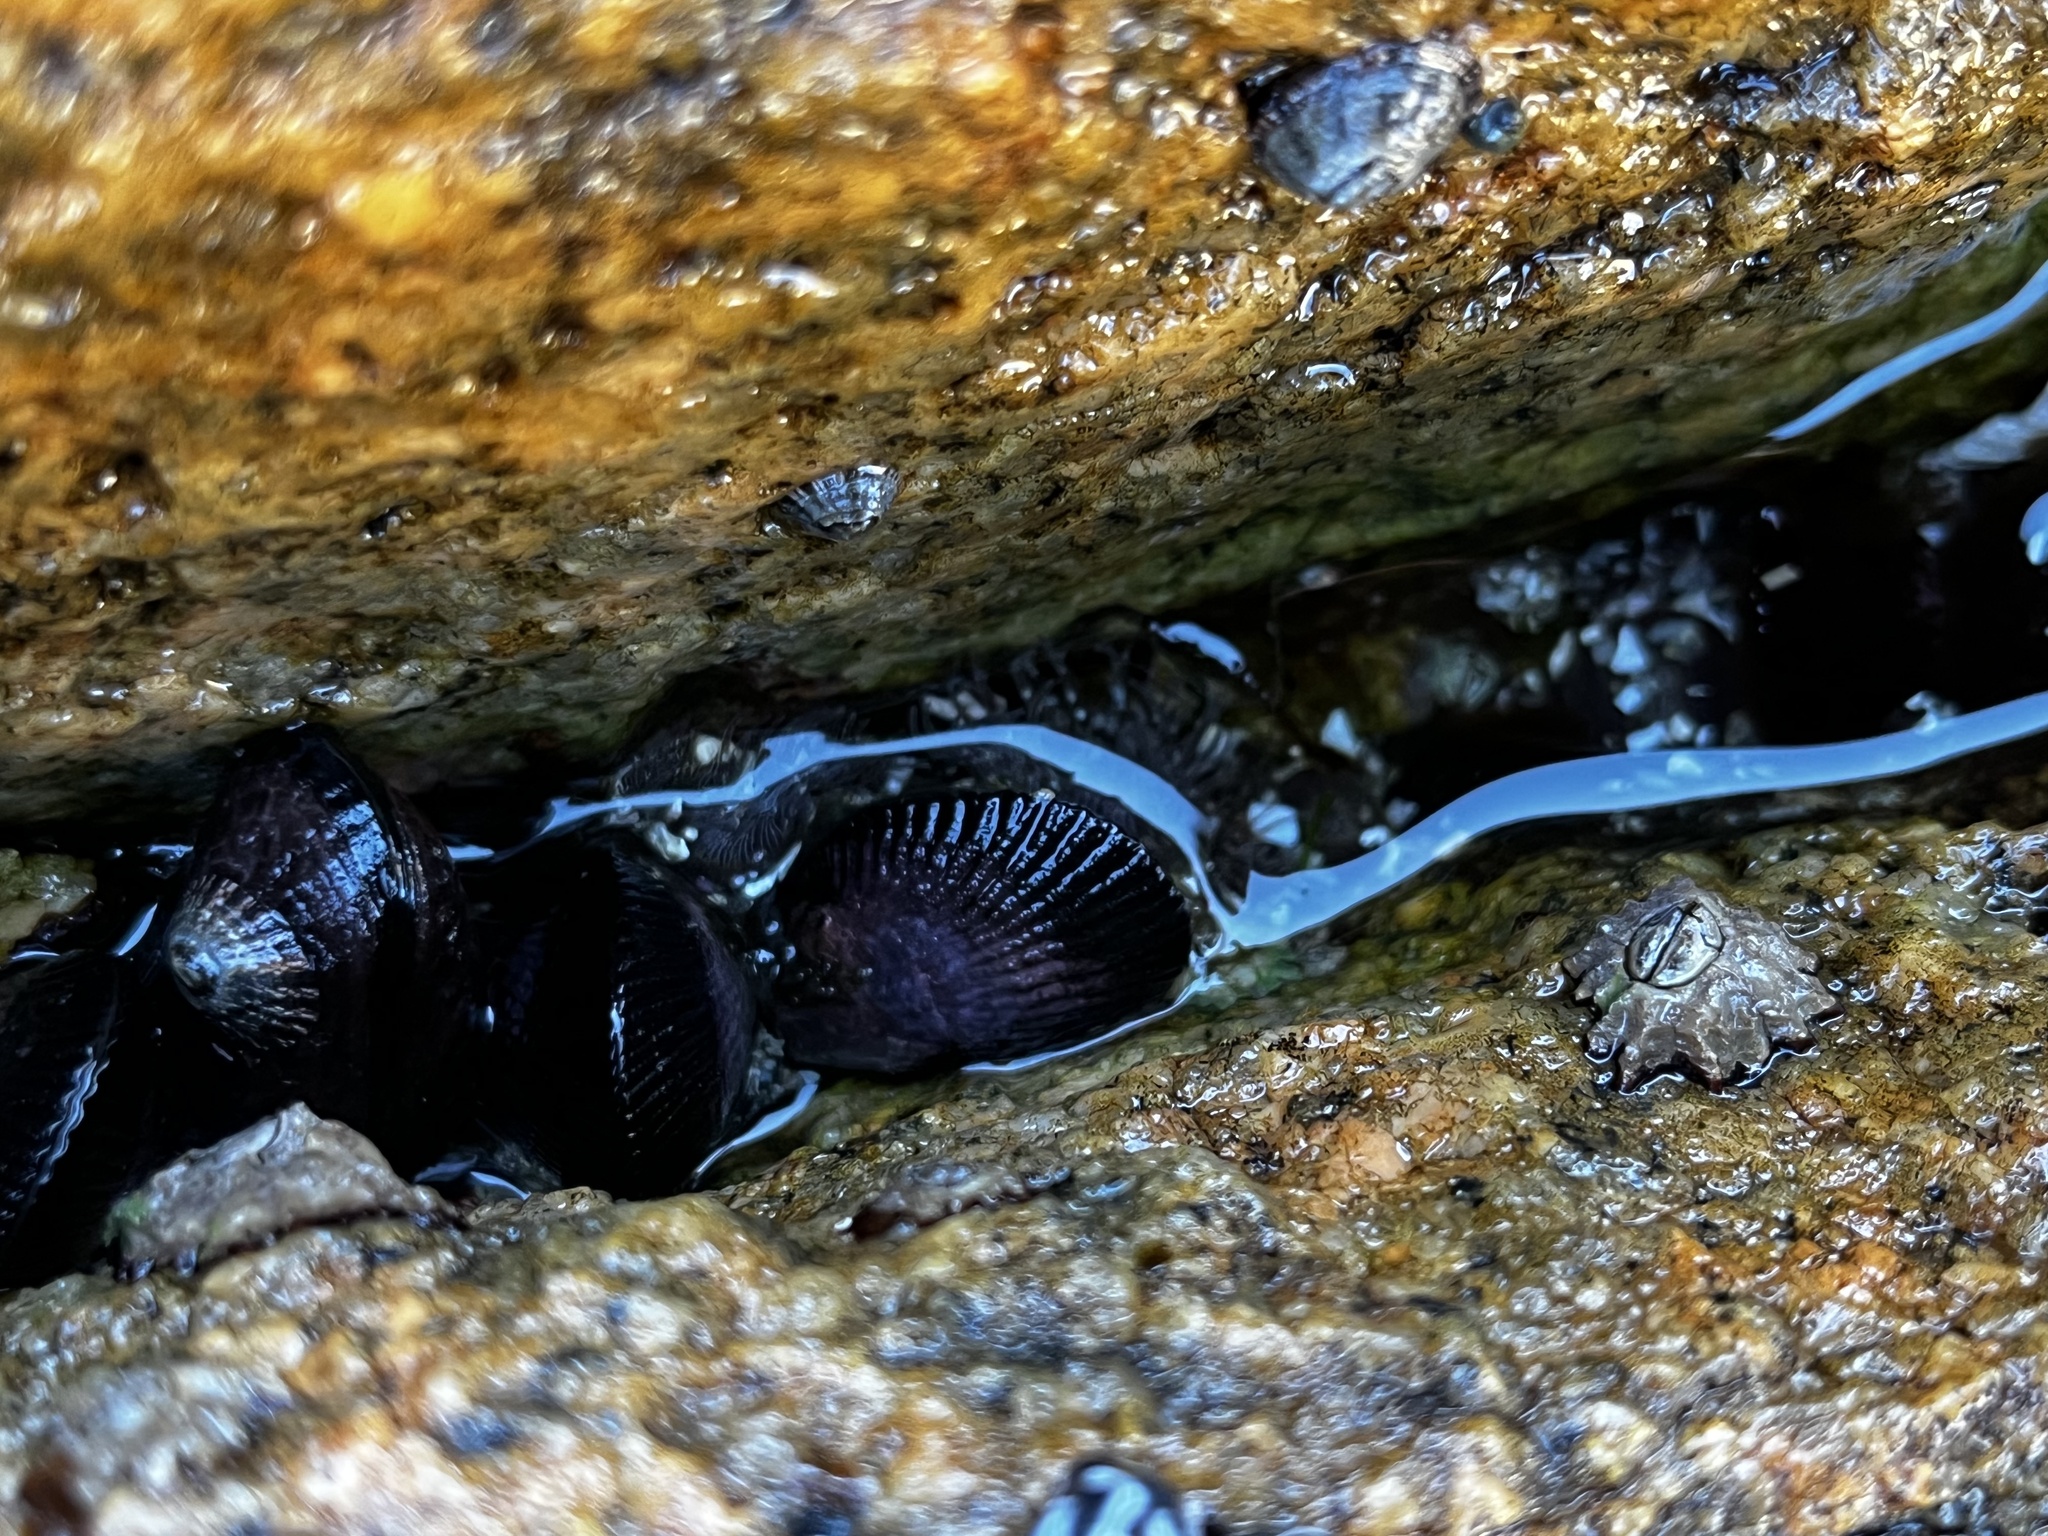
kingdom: Animalia
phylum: Mollusca
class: Bivalvia
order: Mytilida
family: Mytilidae
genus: Perumytilus
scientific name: Perumytilus purpuratus
